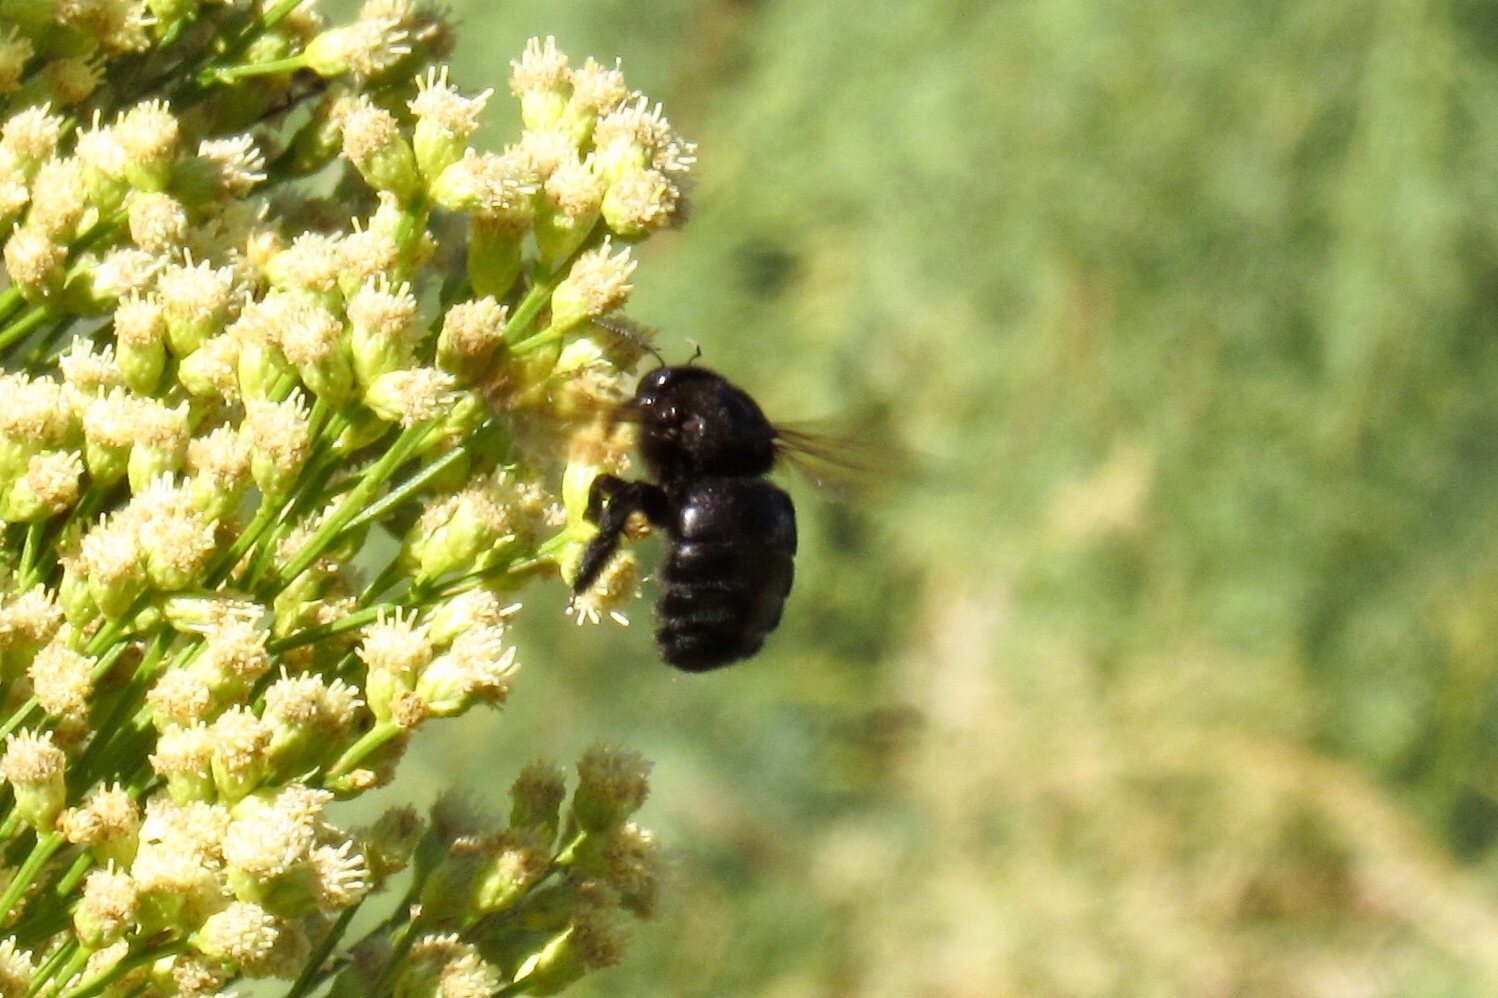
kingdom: Animalia
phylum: Arthropoda
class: Insecta
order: Hymenoptera
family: Apidae
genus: Xylocopa
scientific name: Xylocopa sonorina
